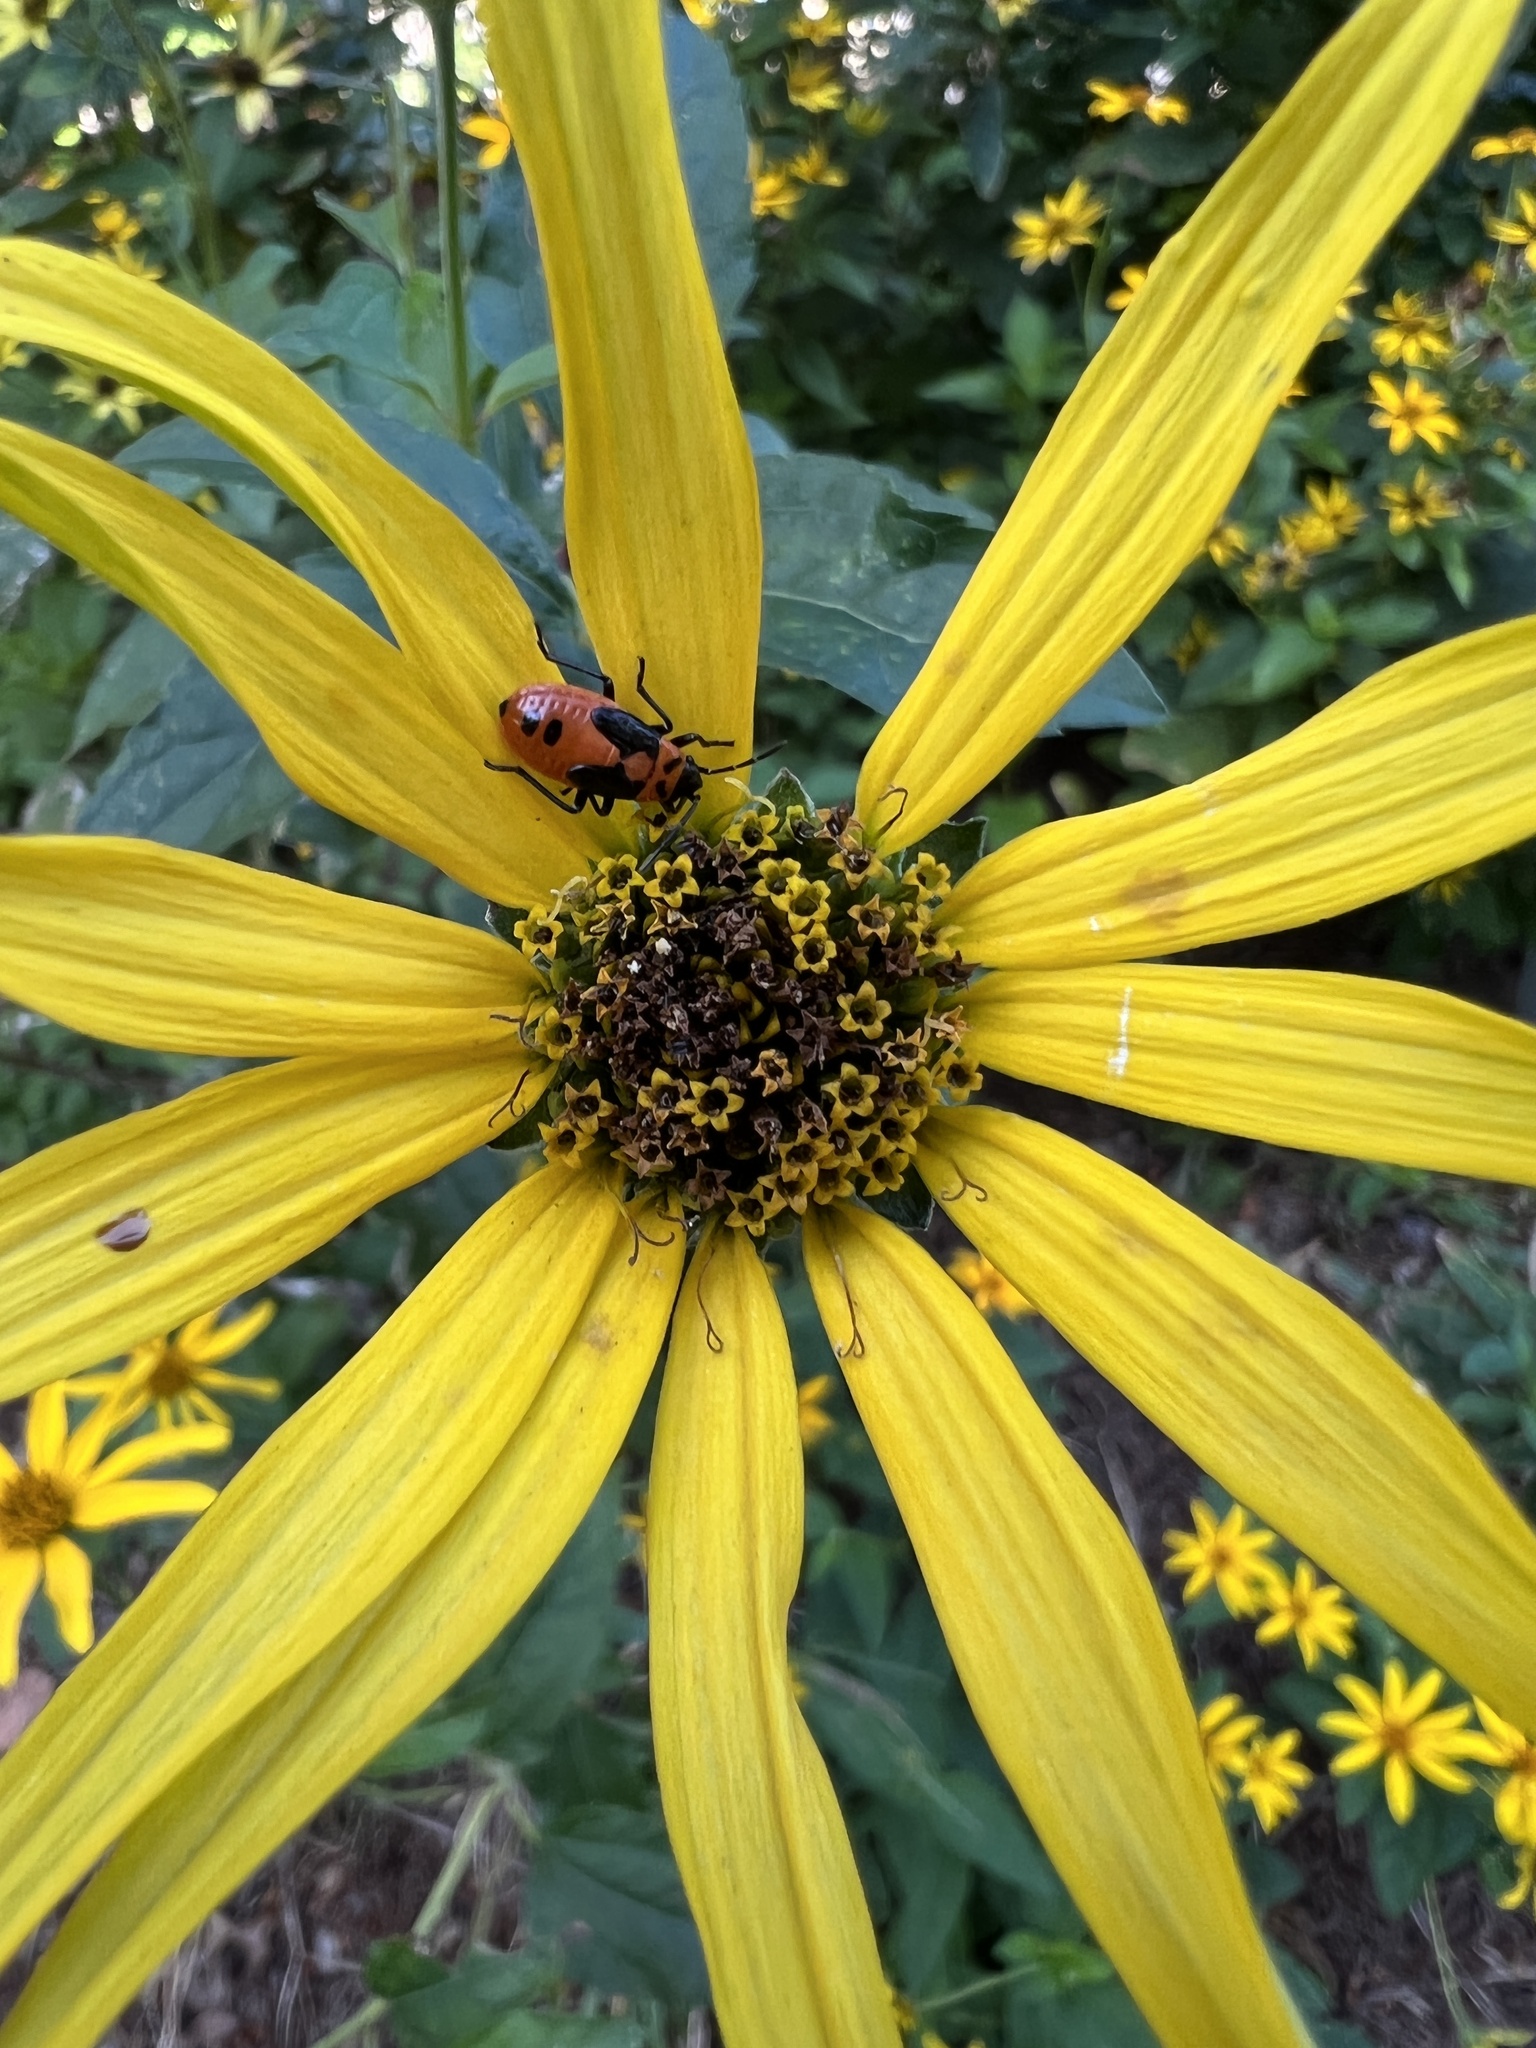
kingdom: Animalia
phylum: Arthropoda
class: Insecta
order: Hemiptera
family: Lygaeidae
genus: Lygaeus
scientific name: Lygaeus turcicus
